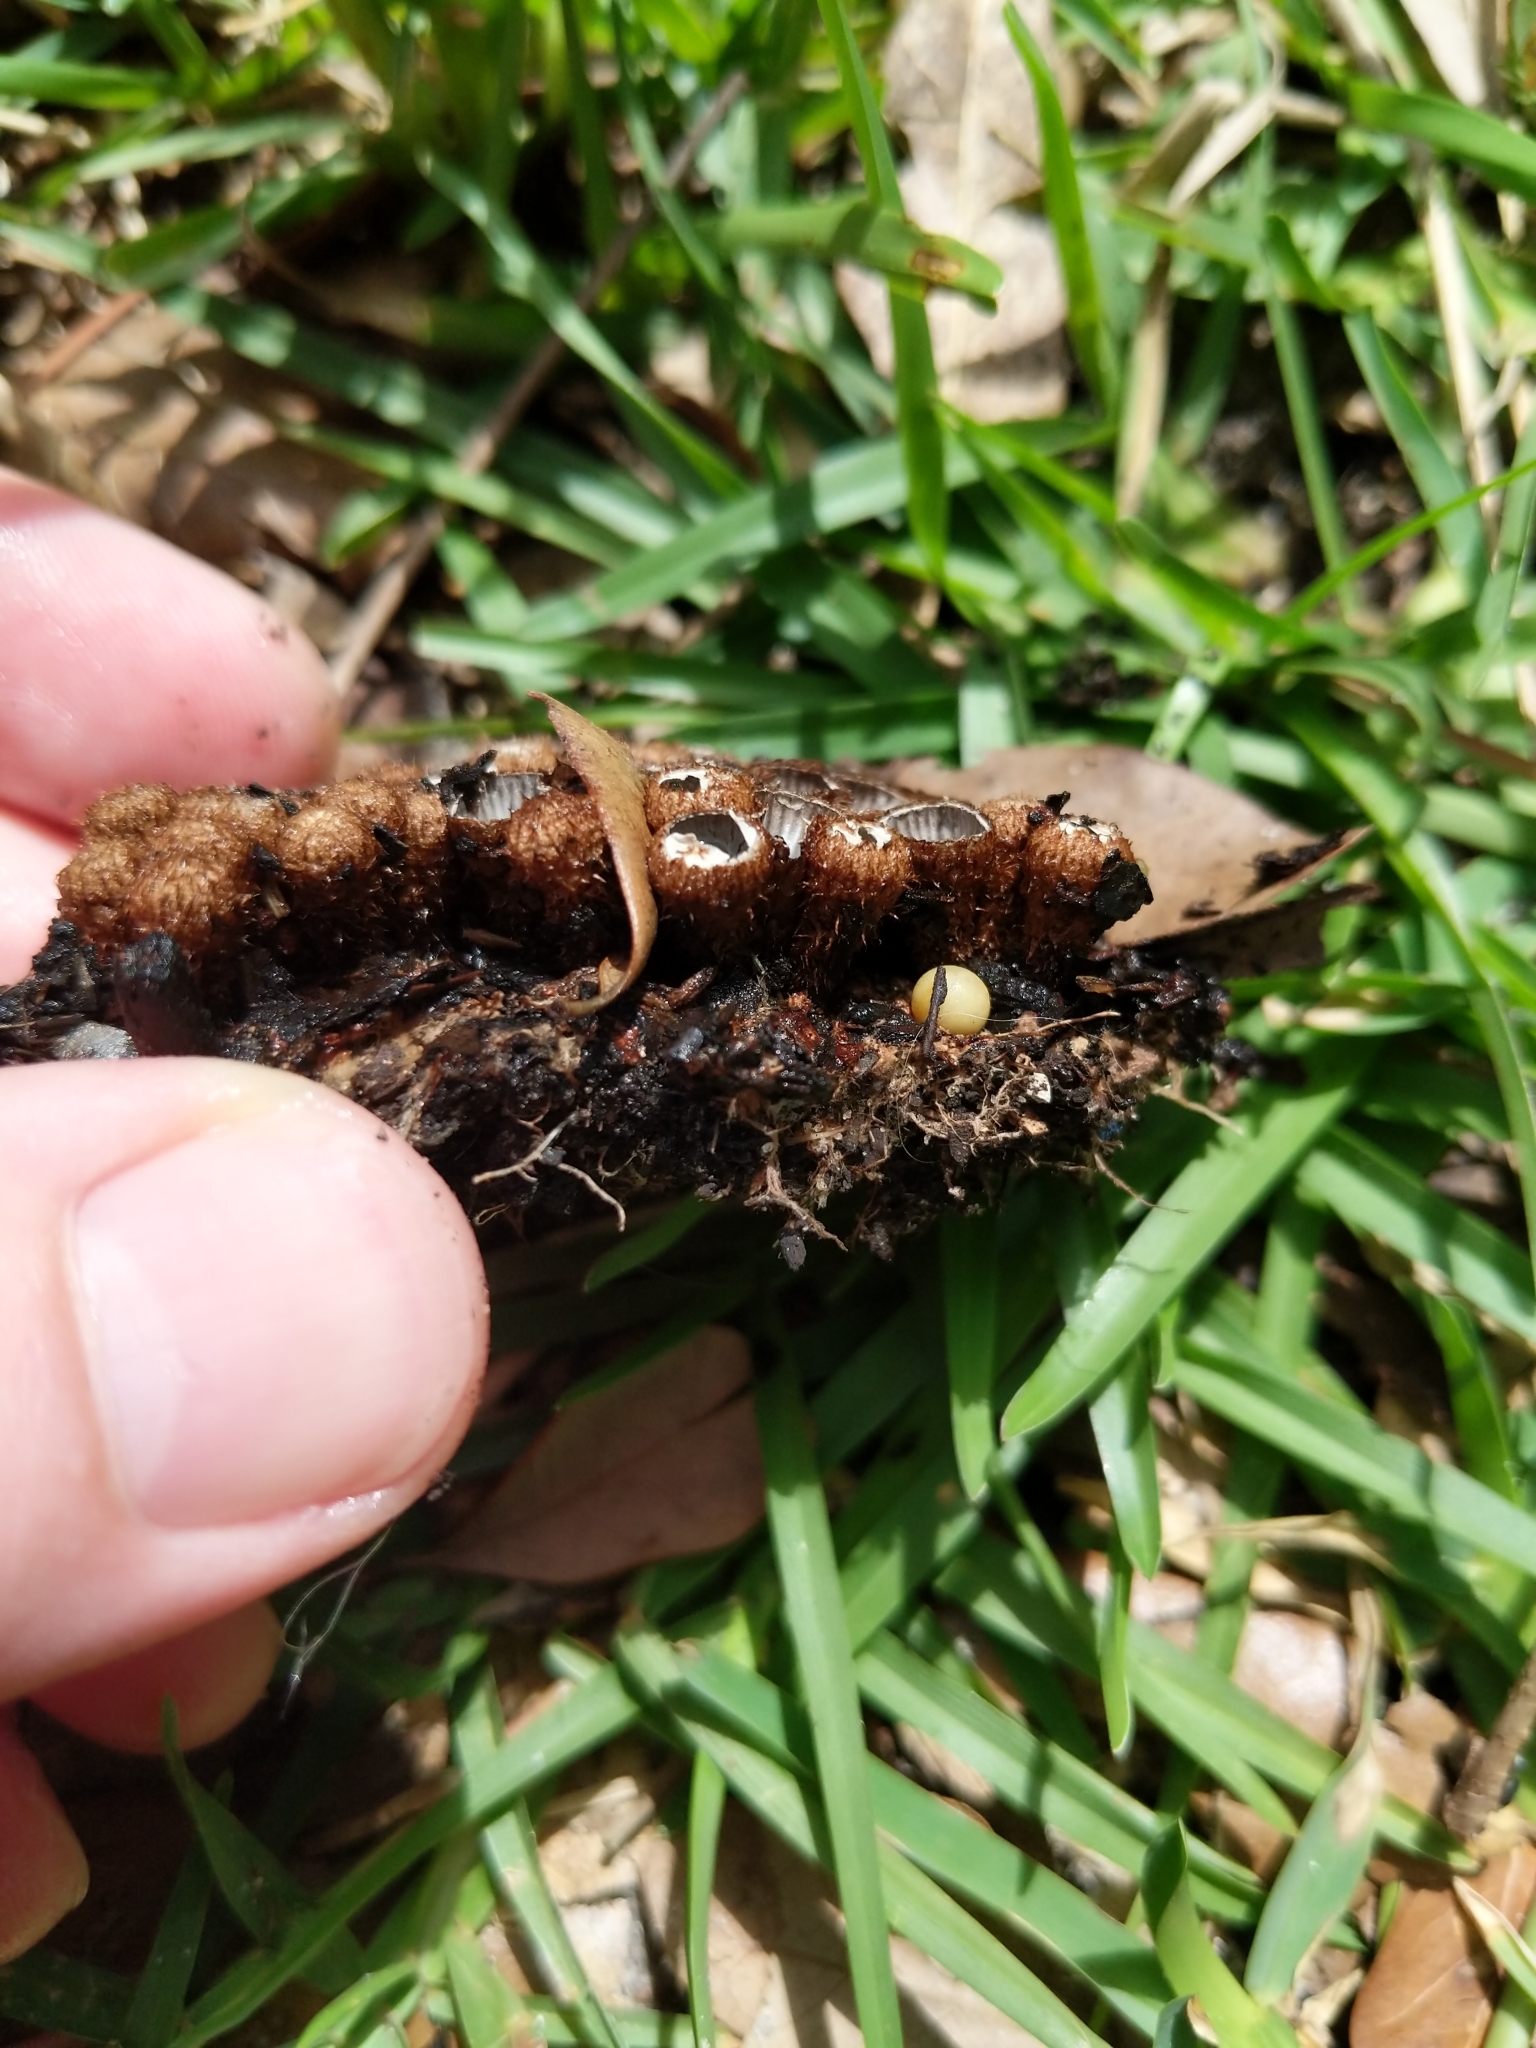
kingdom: Fungi
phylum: Basidiomycota
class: Agaricomycetes
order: Agaricales
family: Agaricaceae
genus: Cyathus
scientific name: Cyathus striatus
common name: Fluted bird's nest
